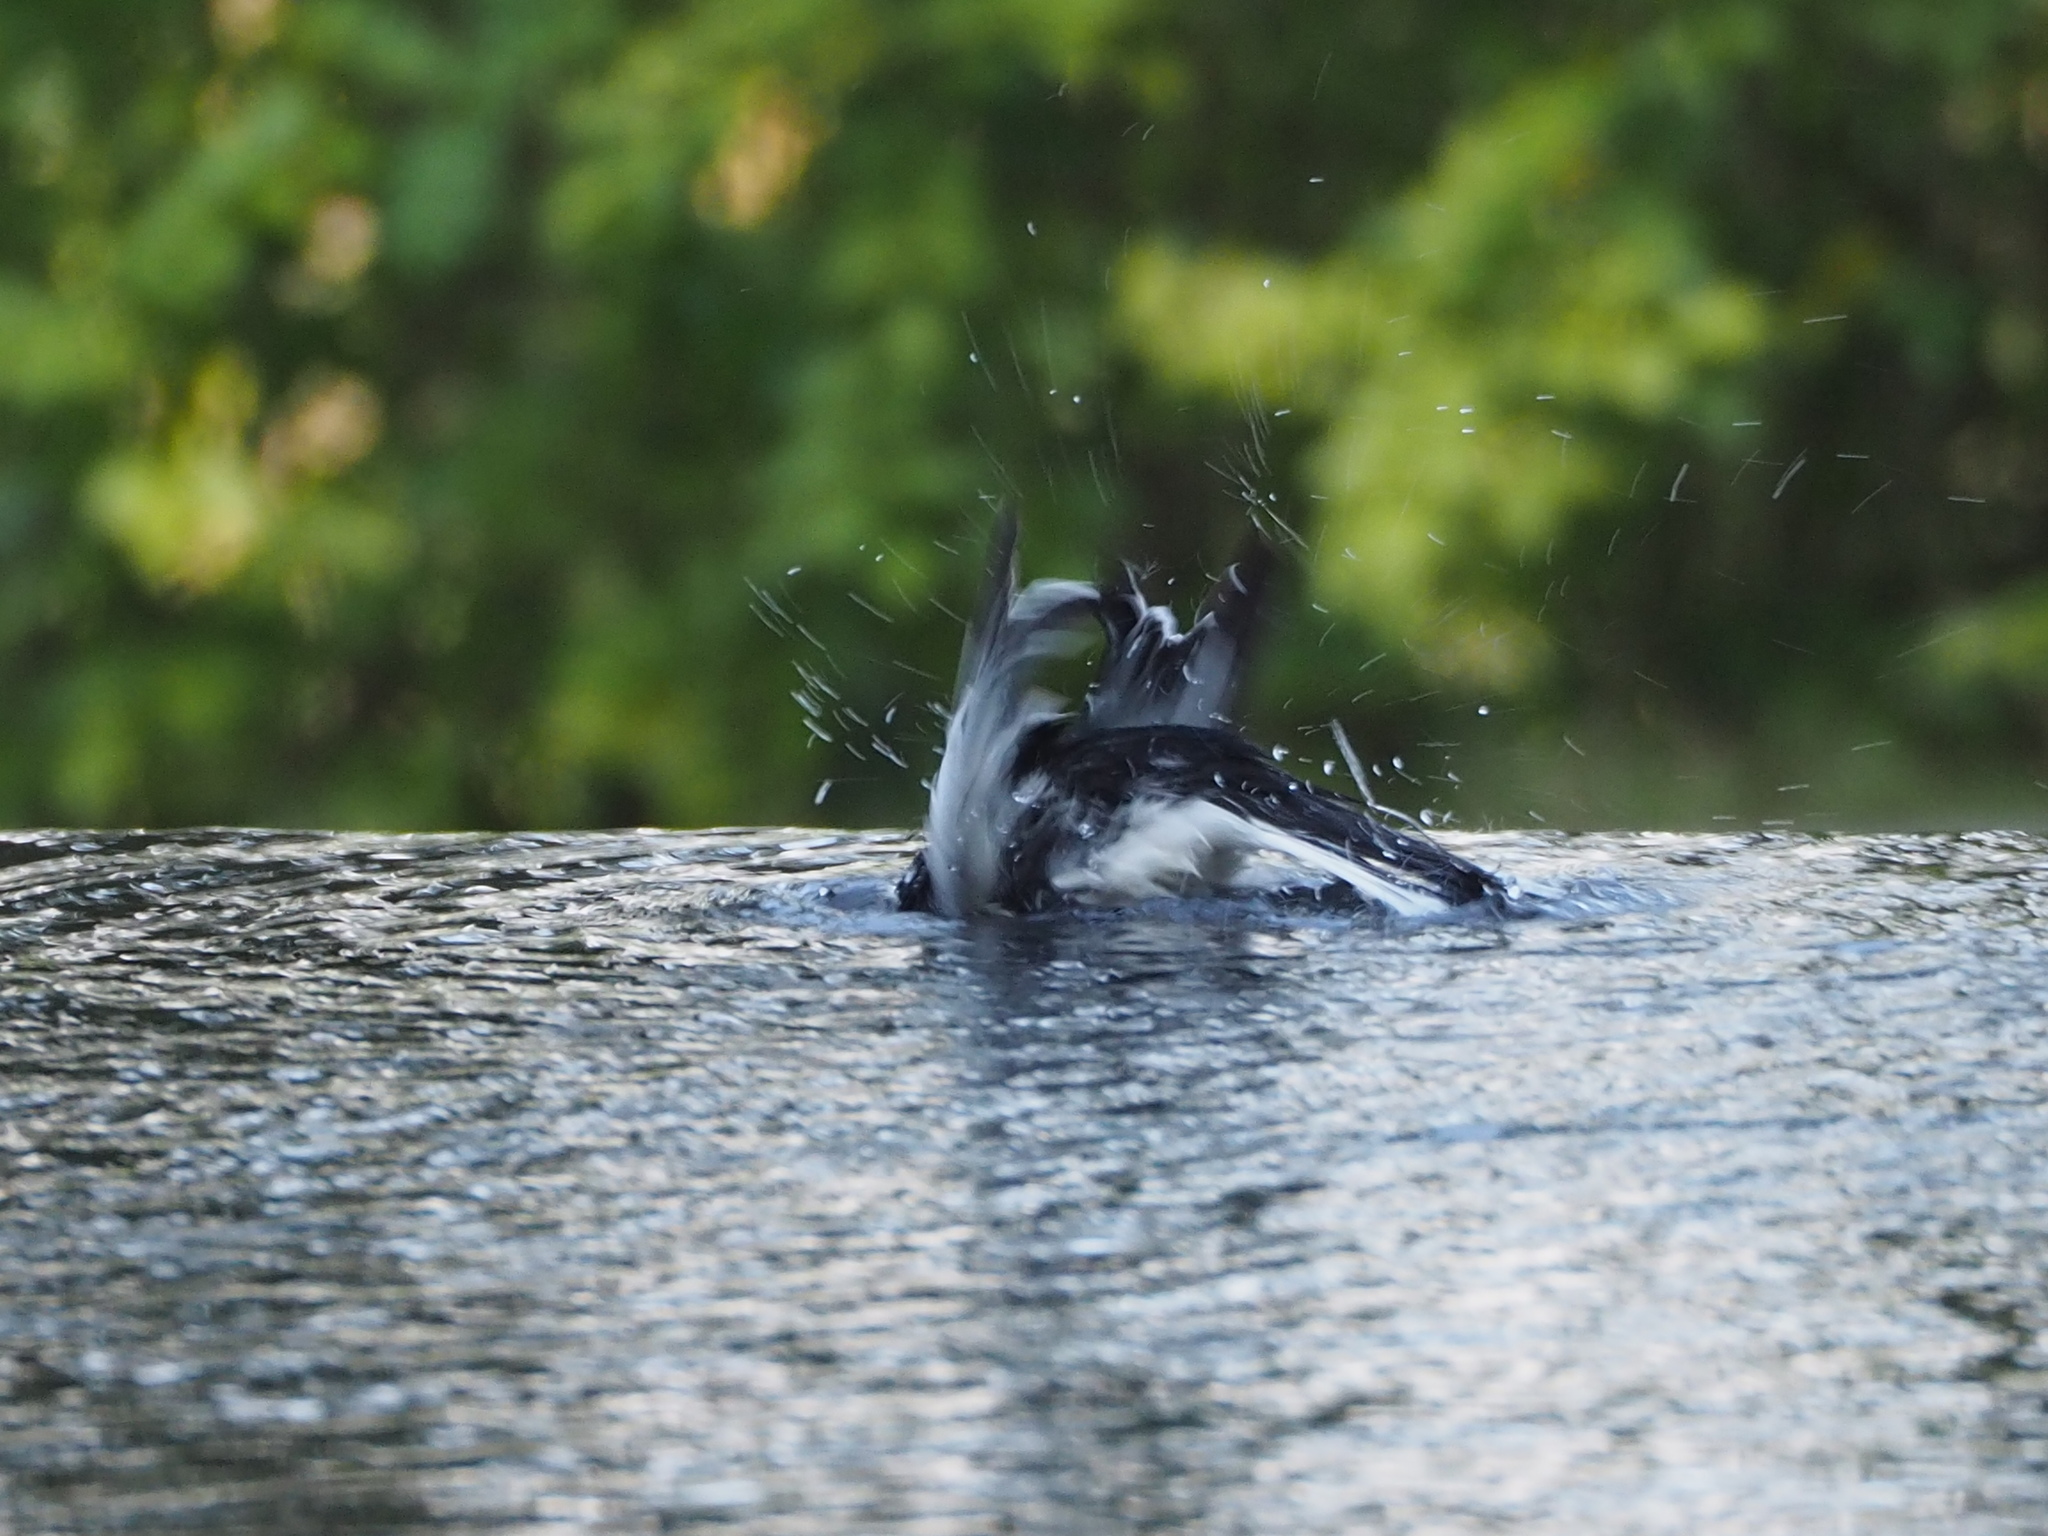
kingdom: Animalia
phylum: Chordata
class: Aves
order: Passeriformes
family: Motacillidae
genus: Motacilla
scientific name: Motacilla alba
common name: White wagtail
